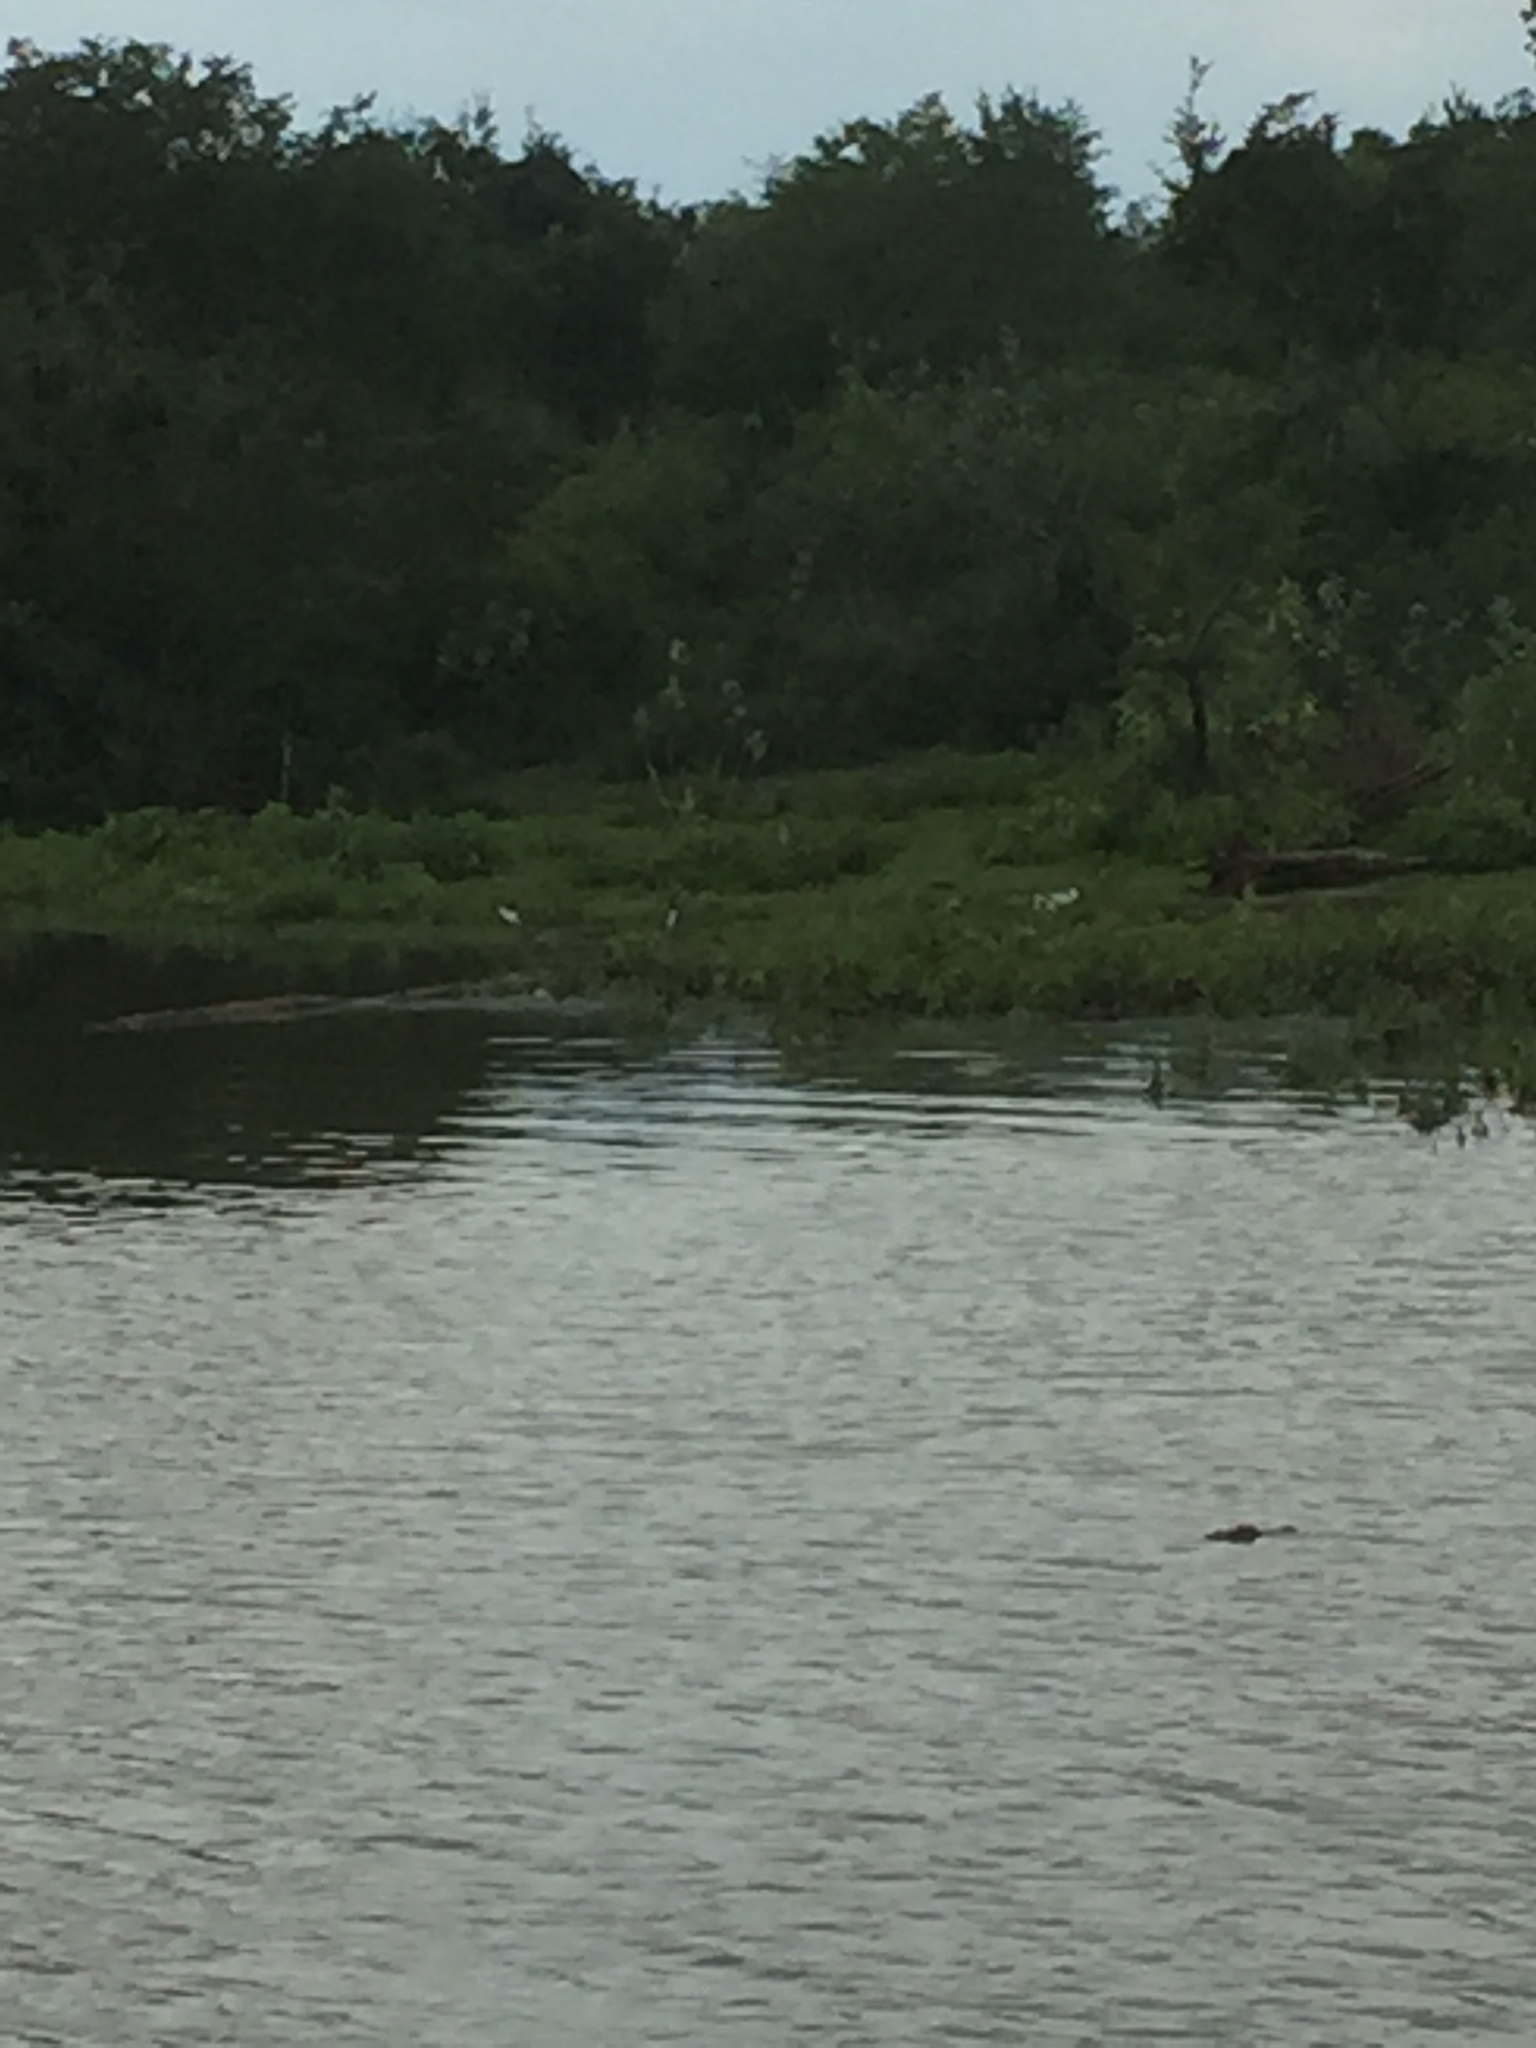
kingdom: Animalia
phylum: Chordata
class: Aves
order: Charadriiformes
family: Recurvirostridae
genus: Himantopus
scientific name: Himantopus himantopus
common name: Black-winged stilt
